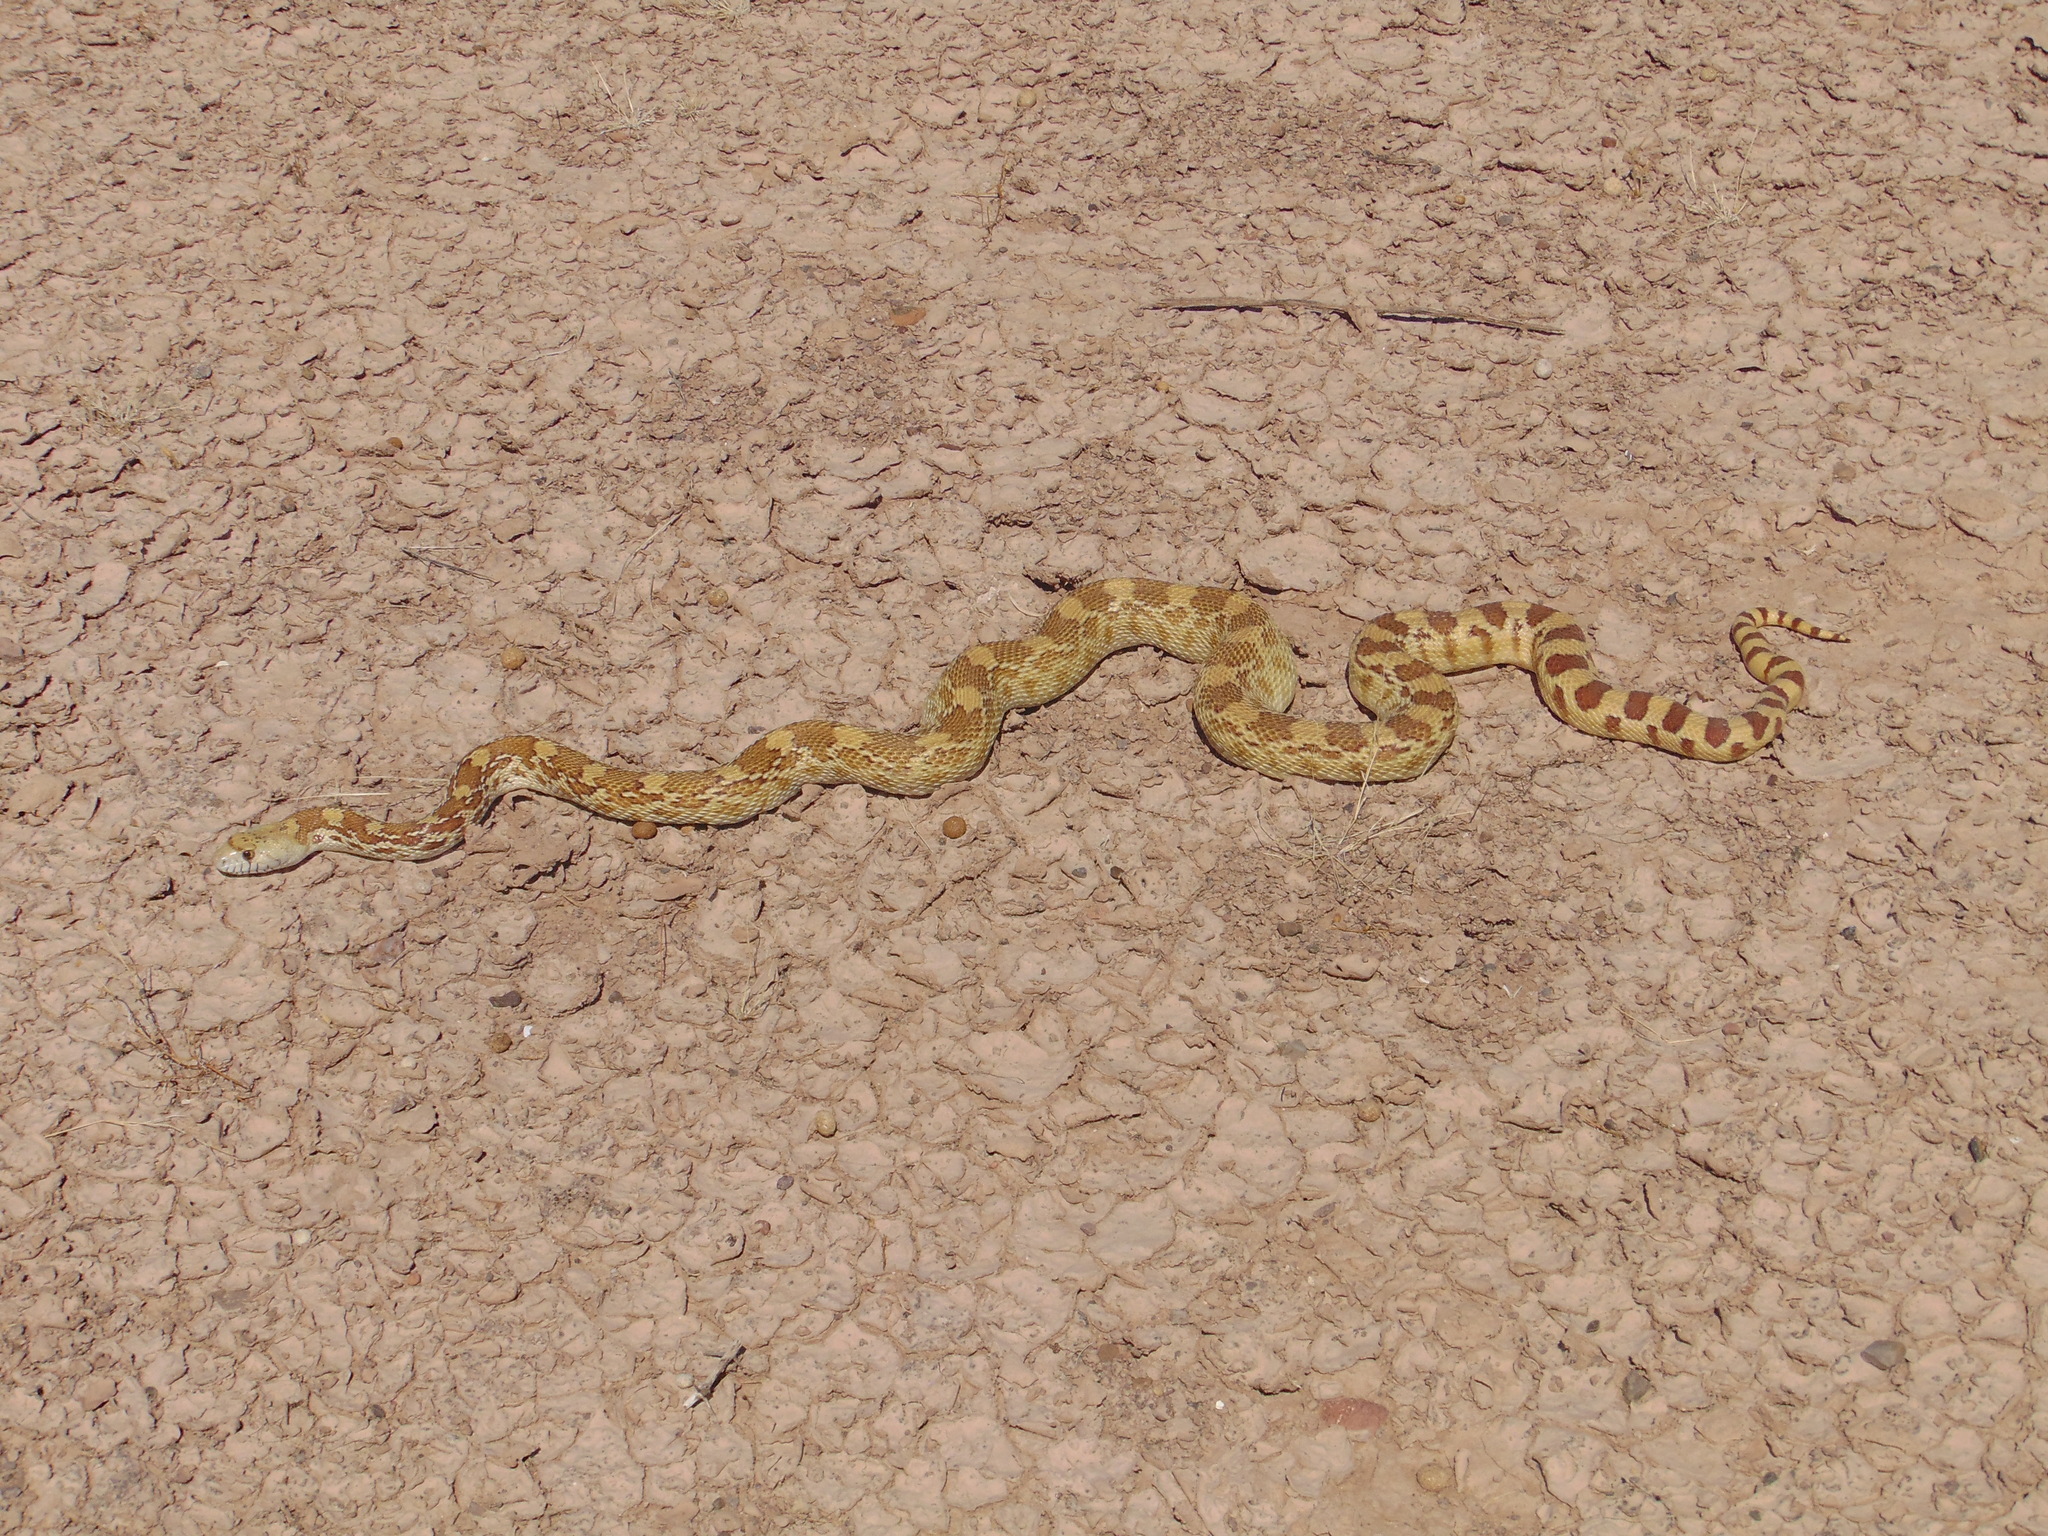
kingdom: Animalia
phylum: Chordata
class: Squamata
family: Colubridae
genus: Pituophis
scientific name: Pituophis catenifer
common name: Gopher snake
